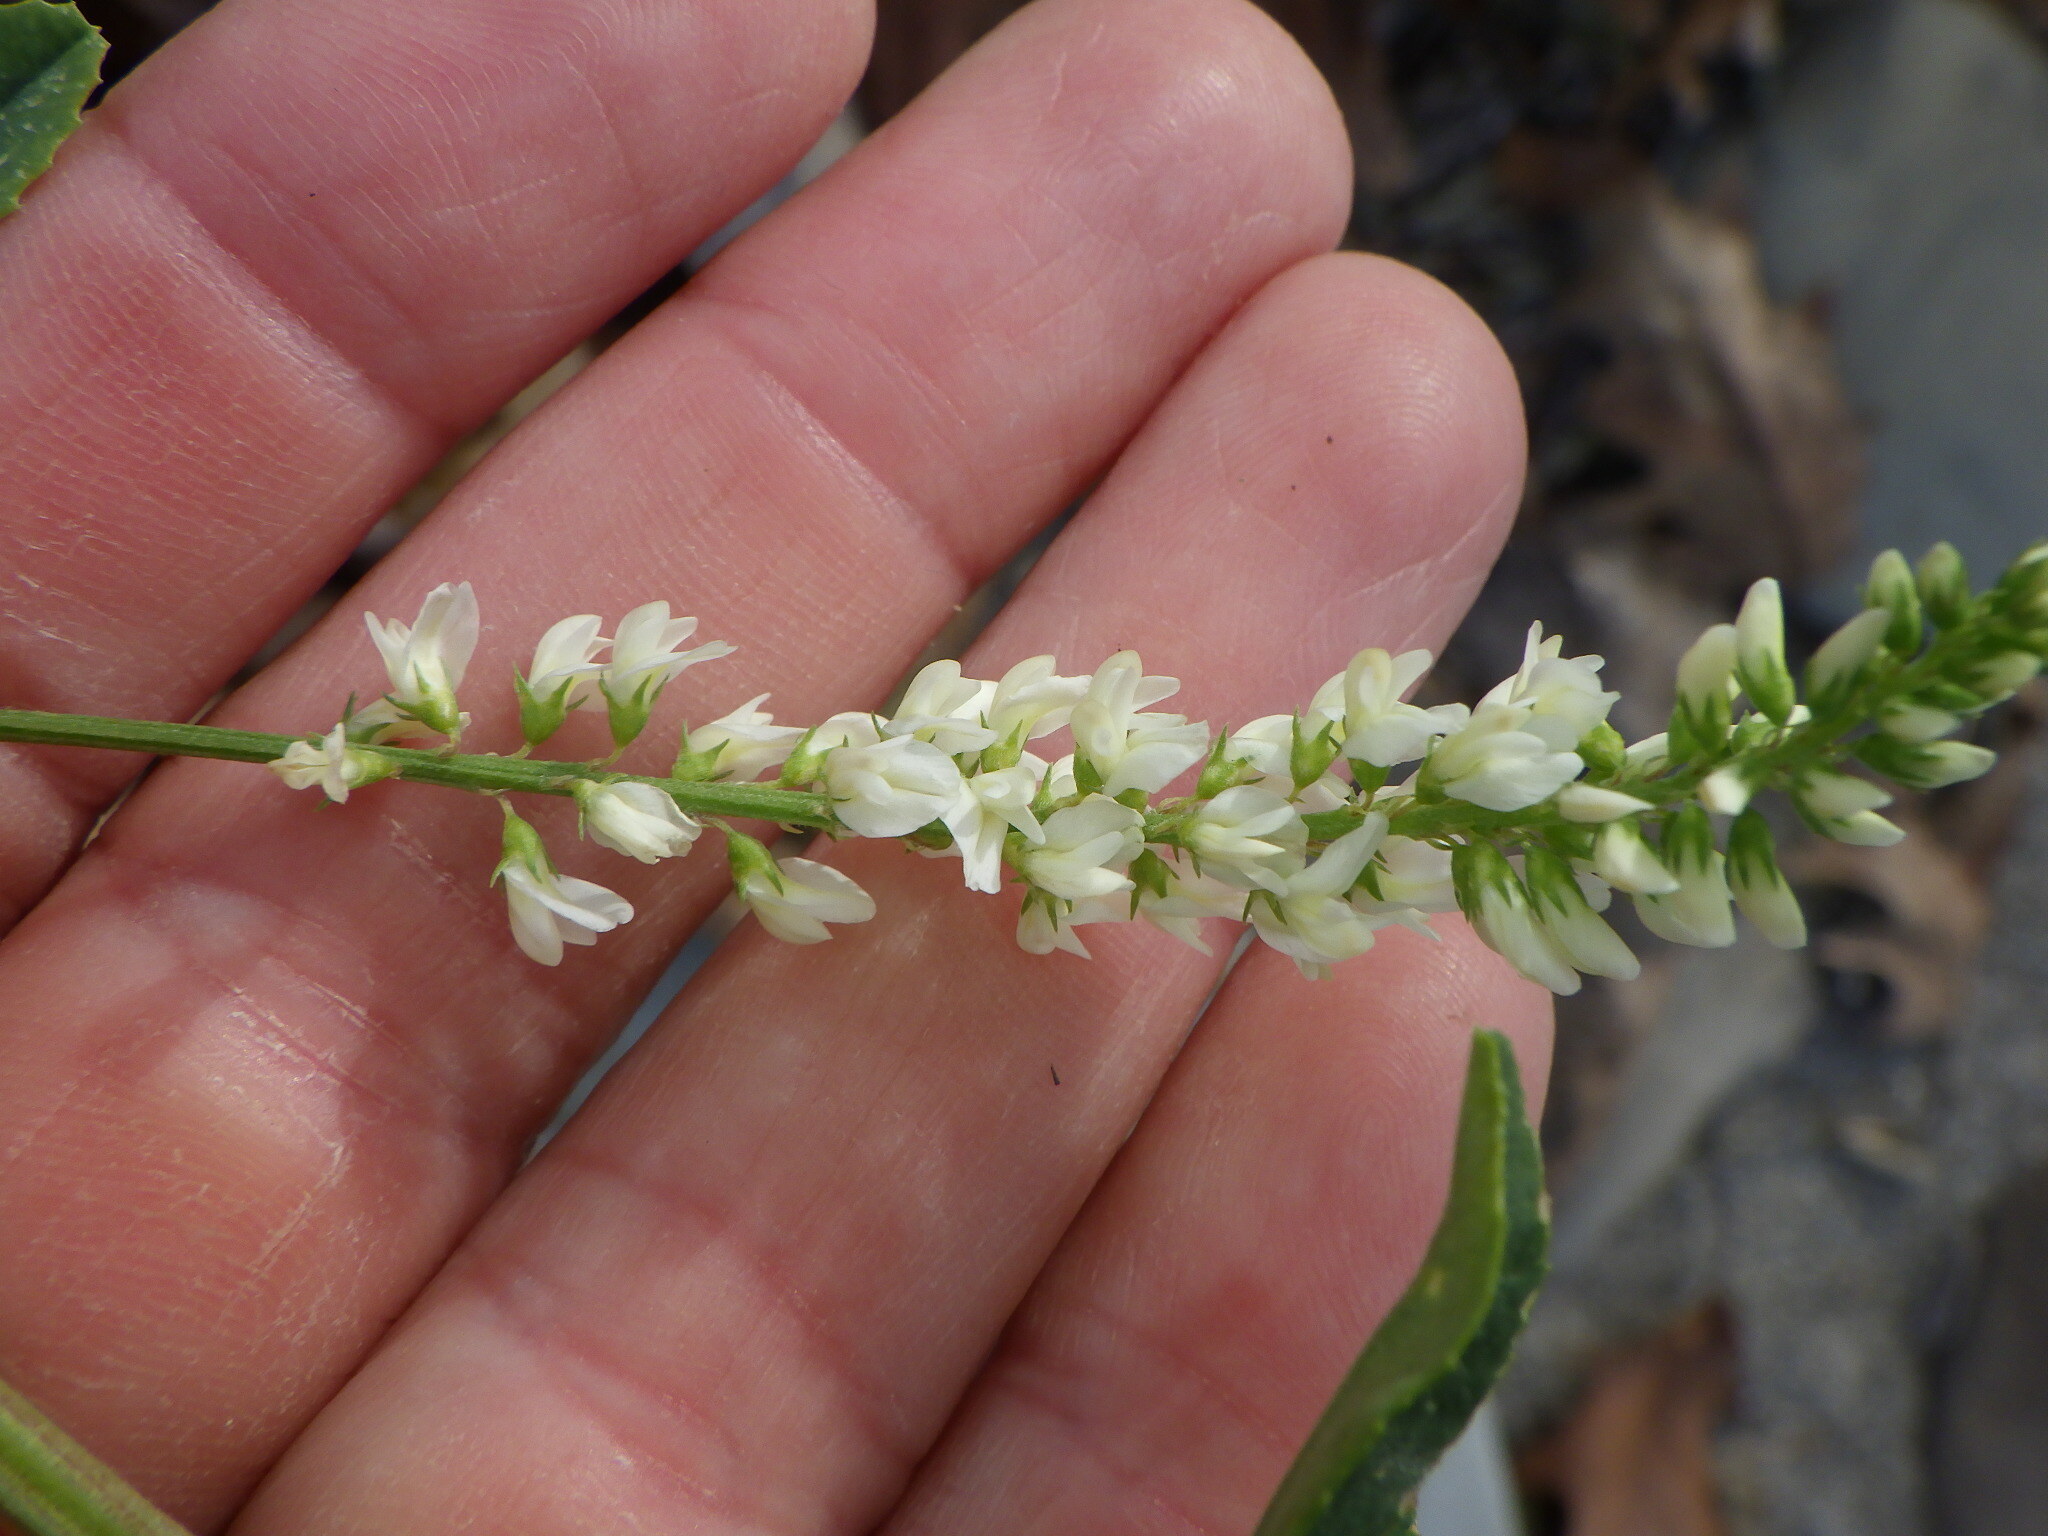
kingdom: Plantae
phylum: Tracheophyta
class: Magnoliopsida
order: Fabales
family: Fabaceae
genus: Melilotus
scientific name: Melilotus albus
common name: White melilot
